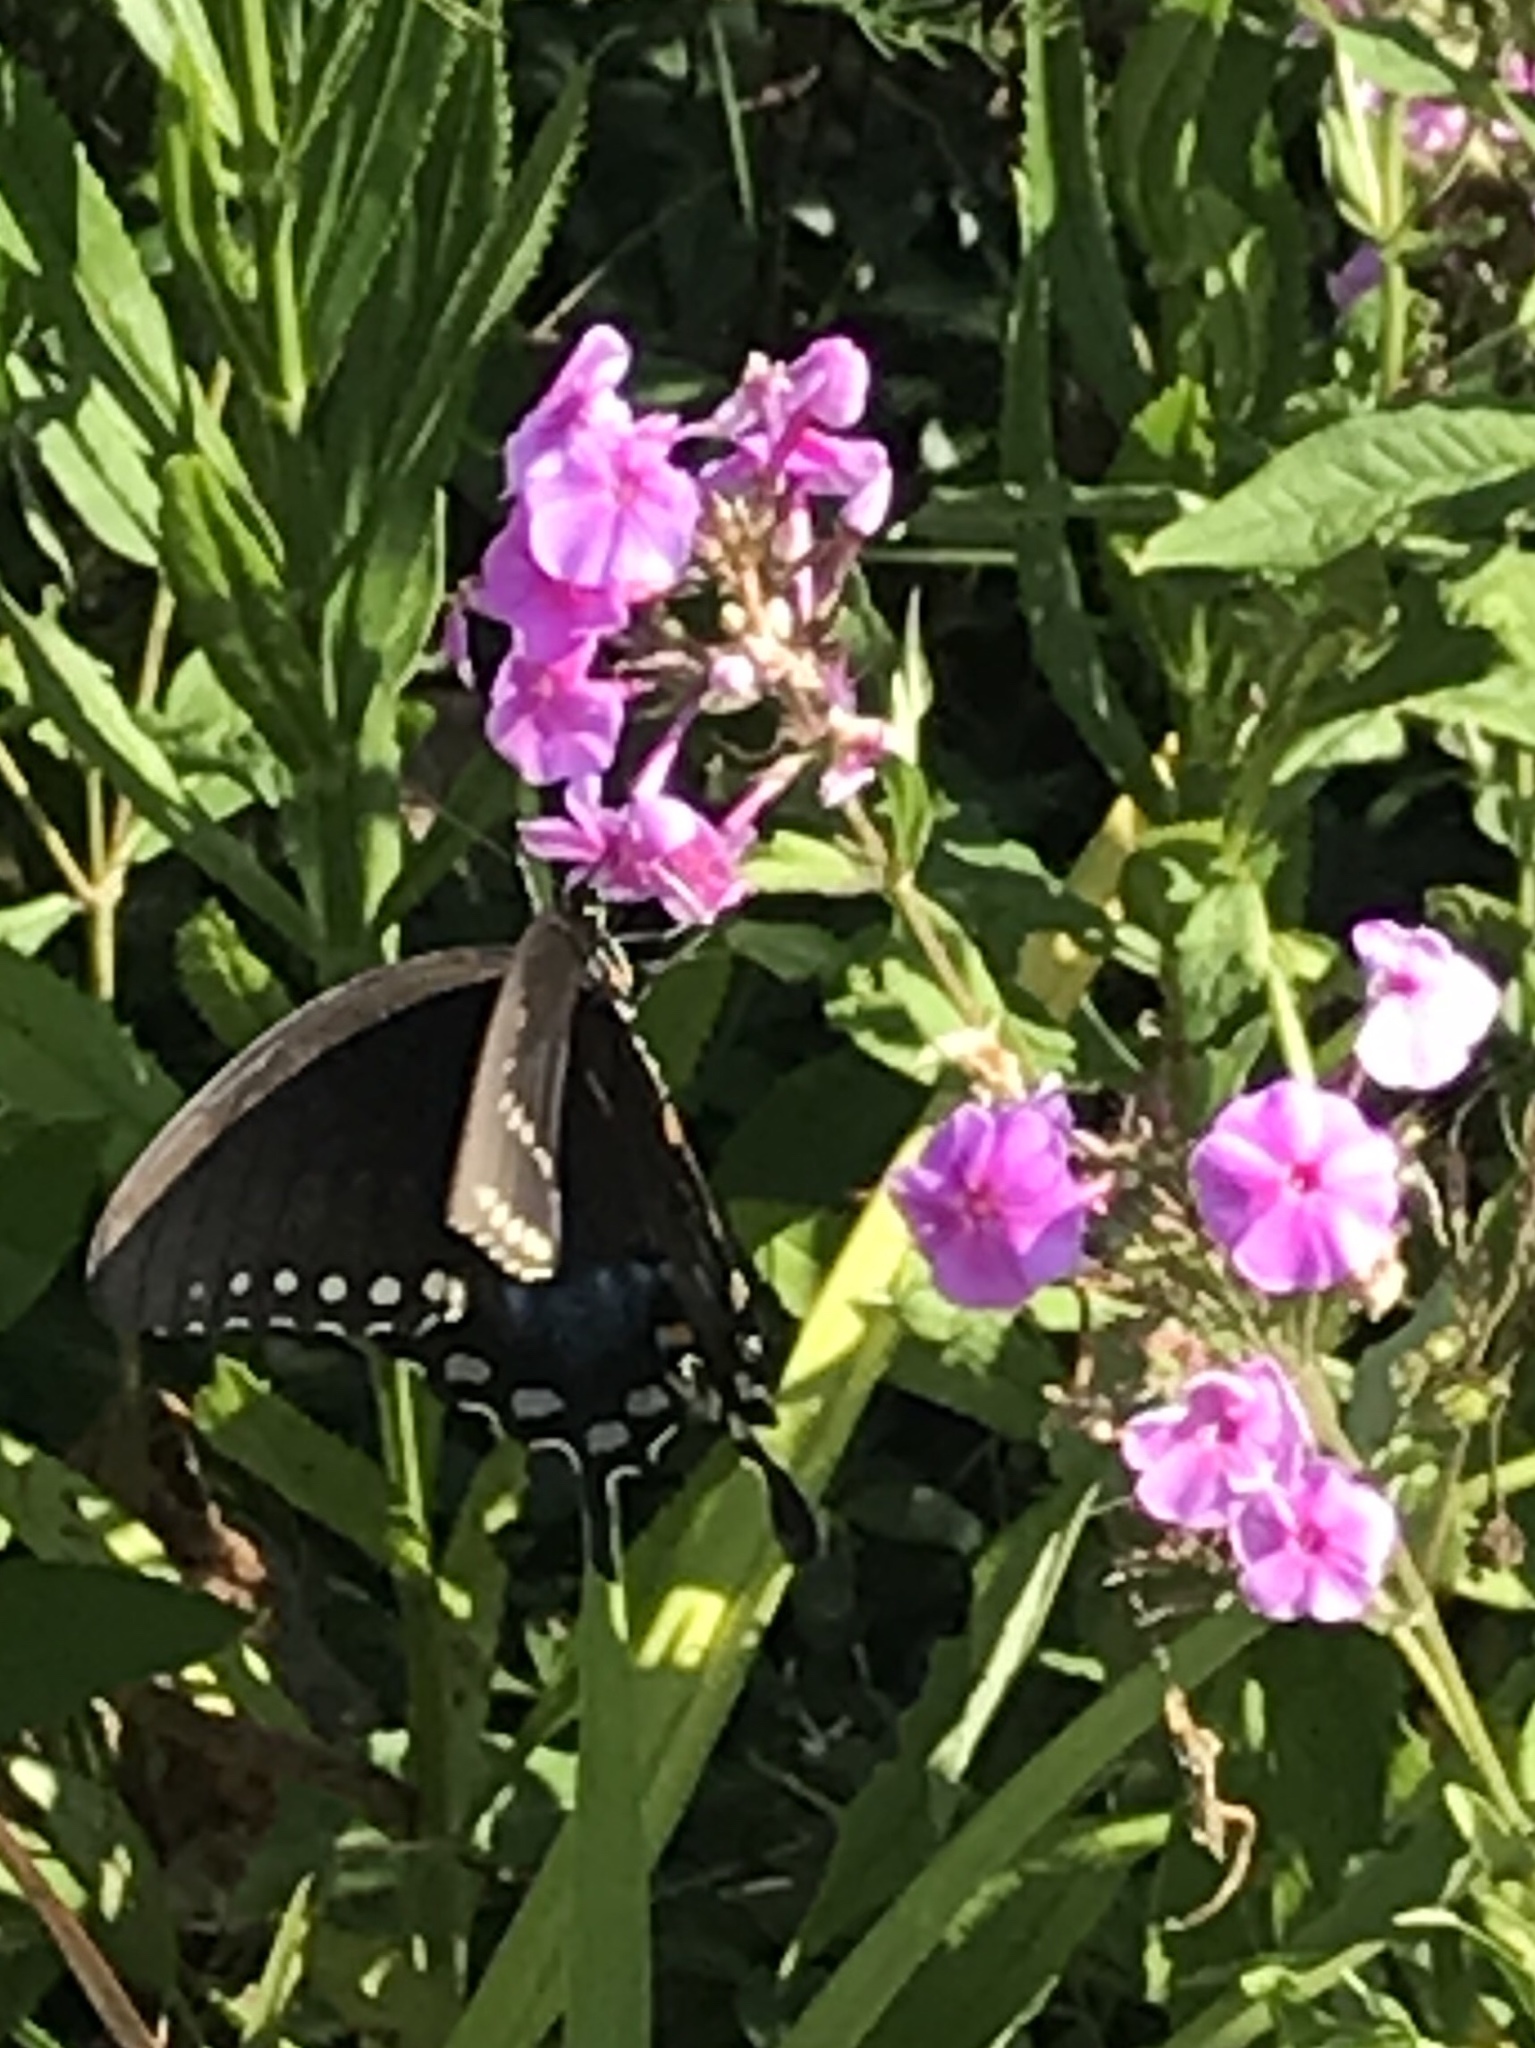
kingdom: Animalia
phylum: Arthropoda
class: Insecta
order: Lepidoptera
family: Papilionidae
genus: Papilio
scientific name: Papilio troilus
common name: Spicebush swallowtail
